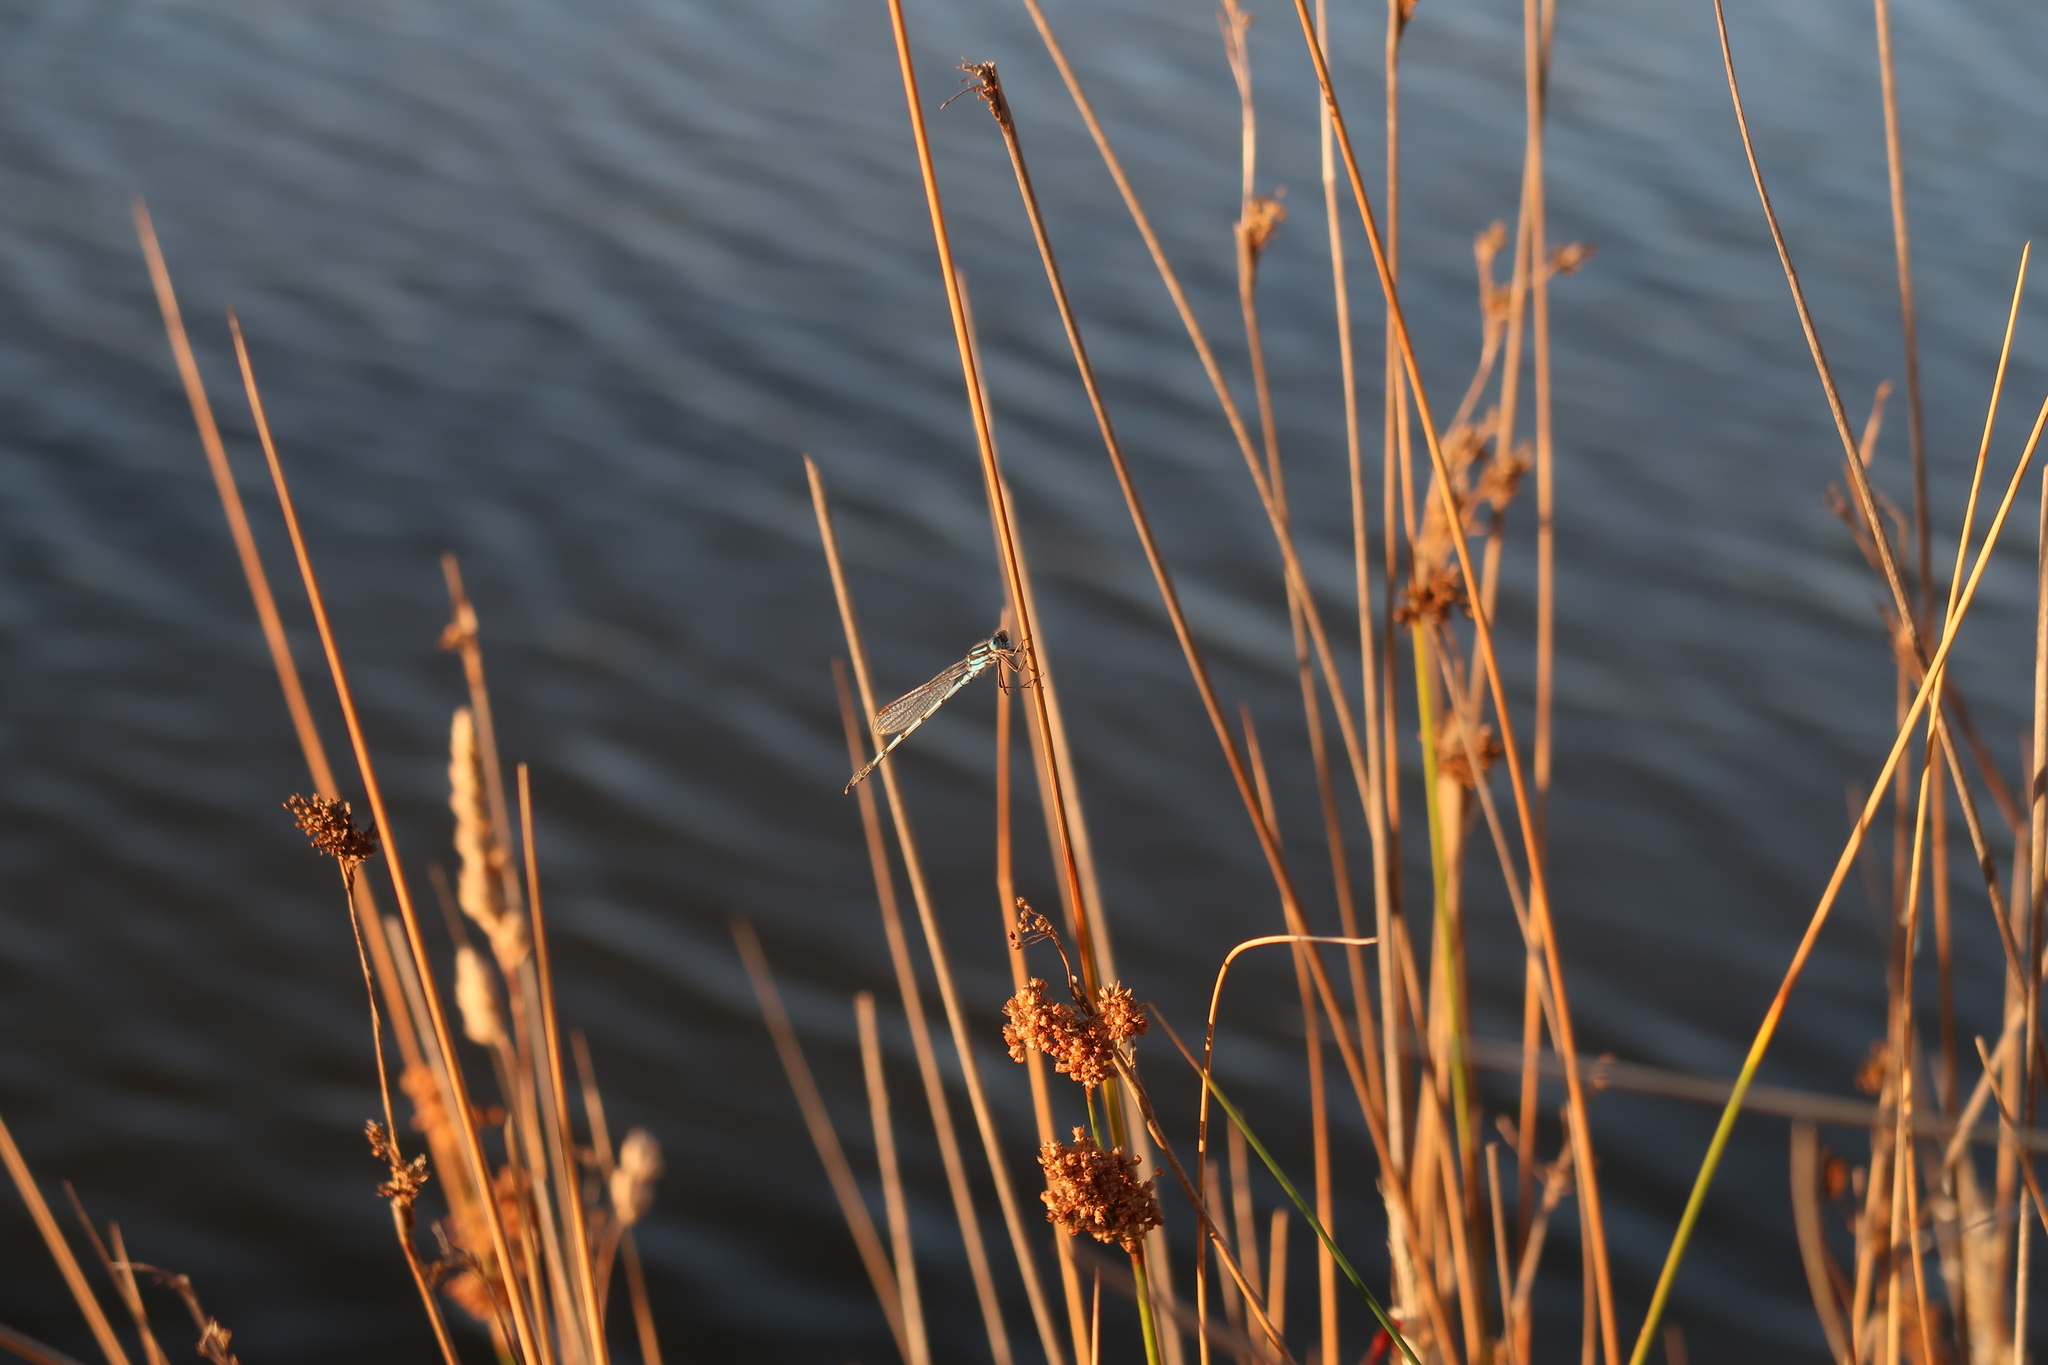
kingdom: Animalia
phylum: Arthropoda
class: Insecta
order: Odonata
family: Lestidae
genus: Austrolestes
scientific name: Austrolestes annulosus
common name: Blue ringtail
